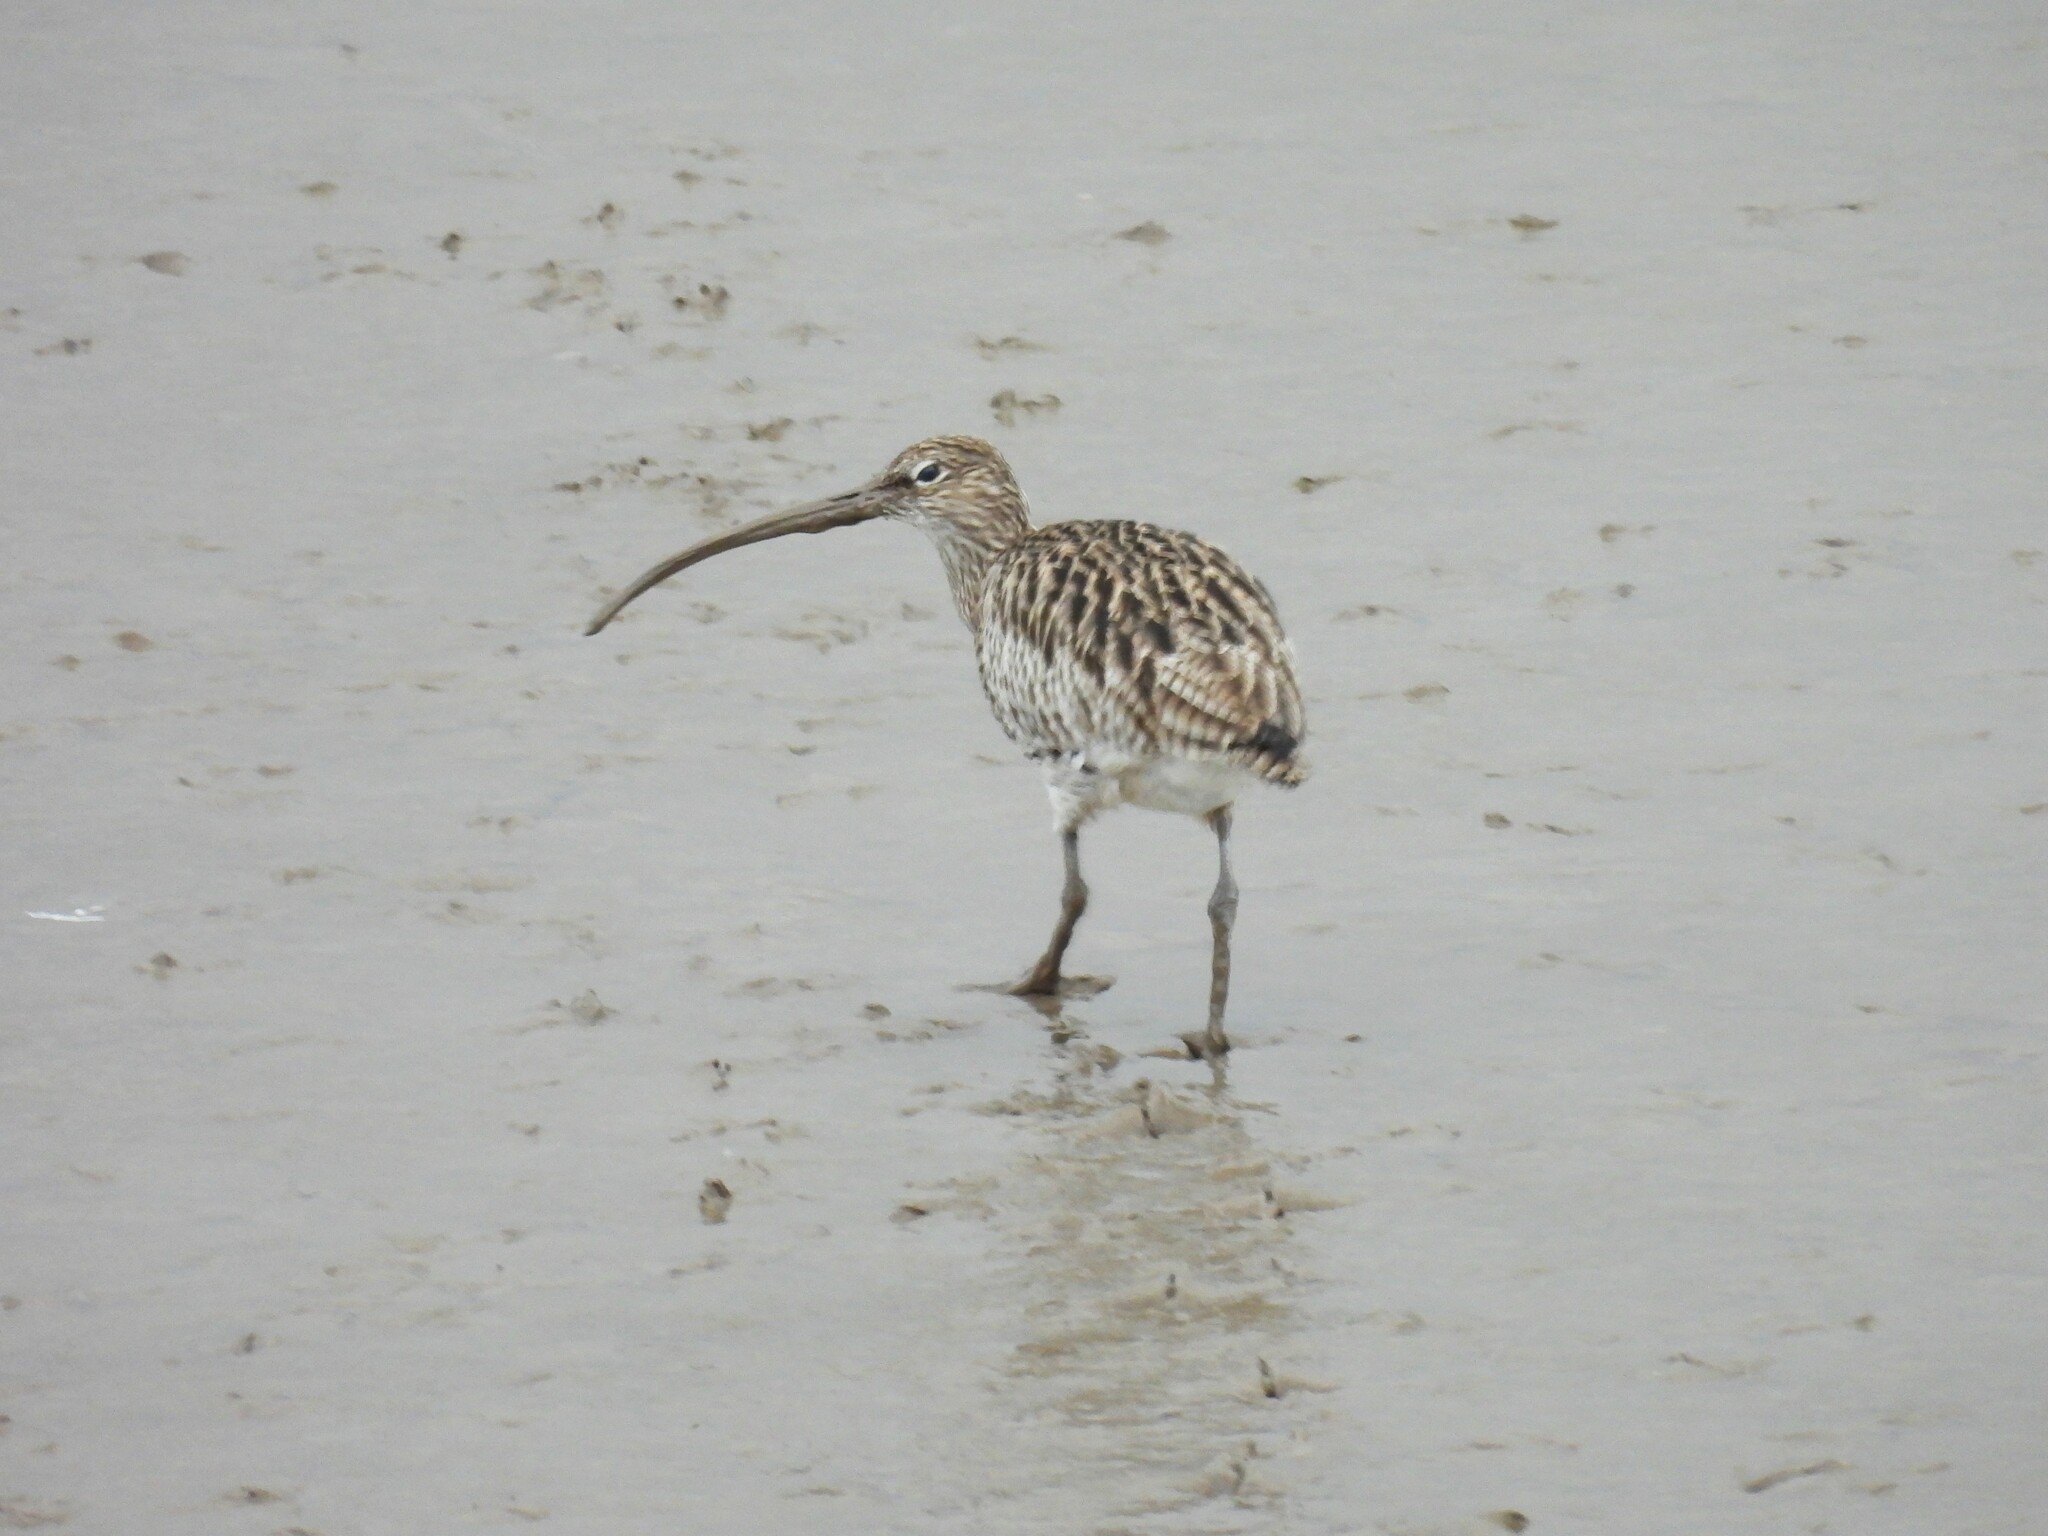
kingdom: Animalia
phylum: Chordata
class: Aves
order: Charadriiformes
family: Scolopacidae
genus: Numenius
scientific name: Numenius arquata
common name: Eurasian curlew
